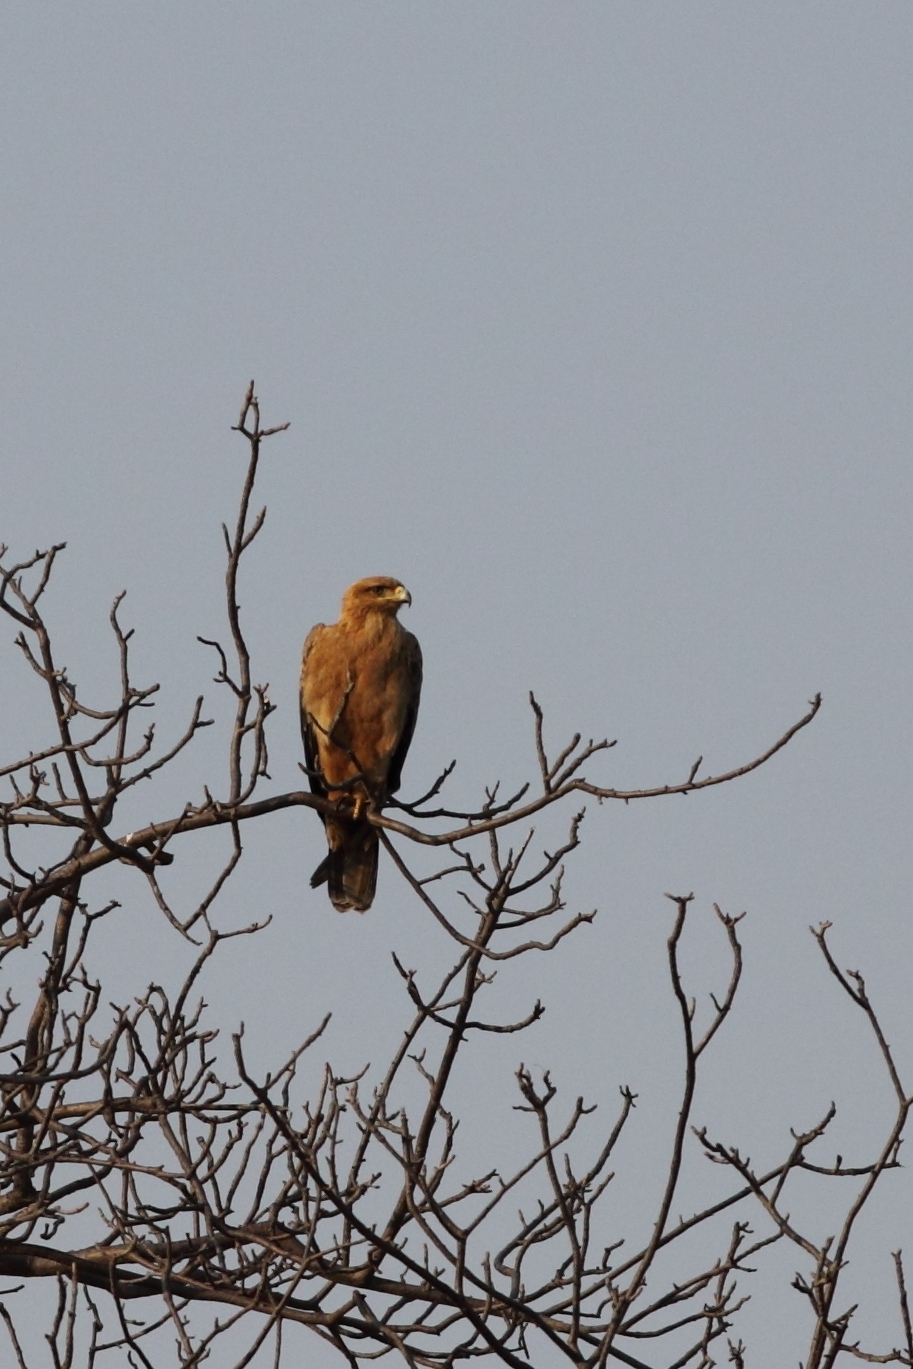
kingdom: Animalia
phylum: Chordata
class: Aves
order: Accipitriformes
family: Accipitridae
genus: Aquila
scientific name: Aquila rapax
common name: Tawny eagle
